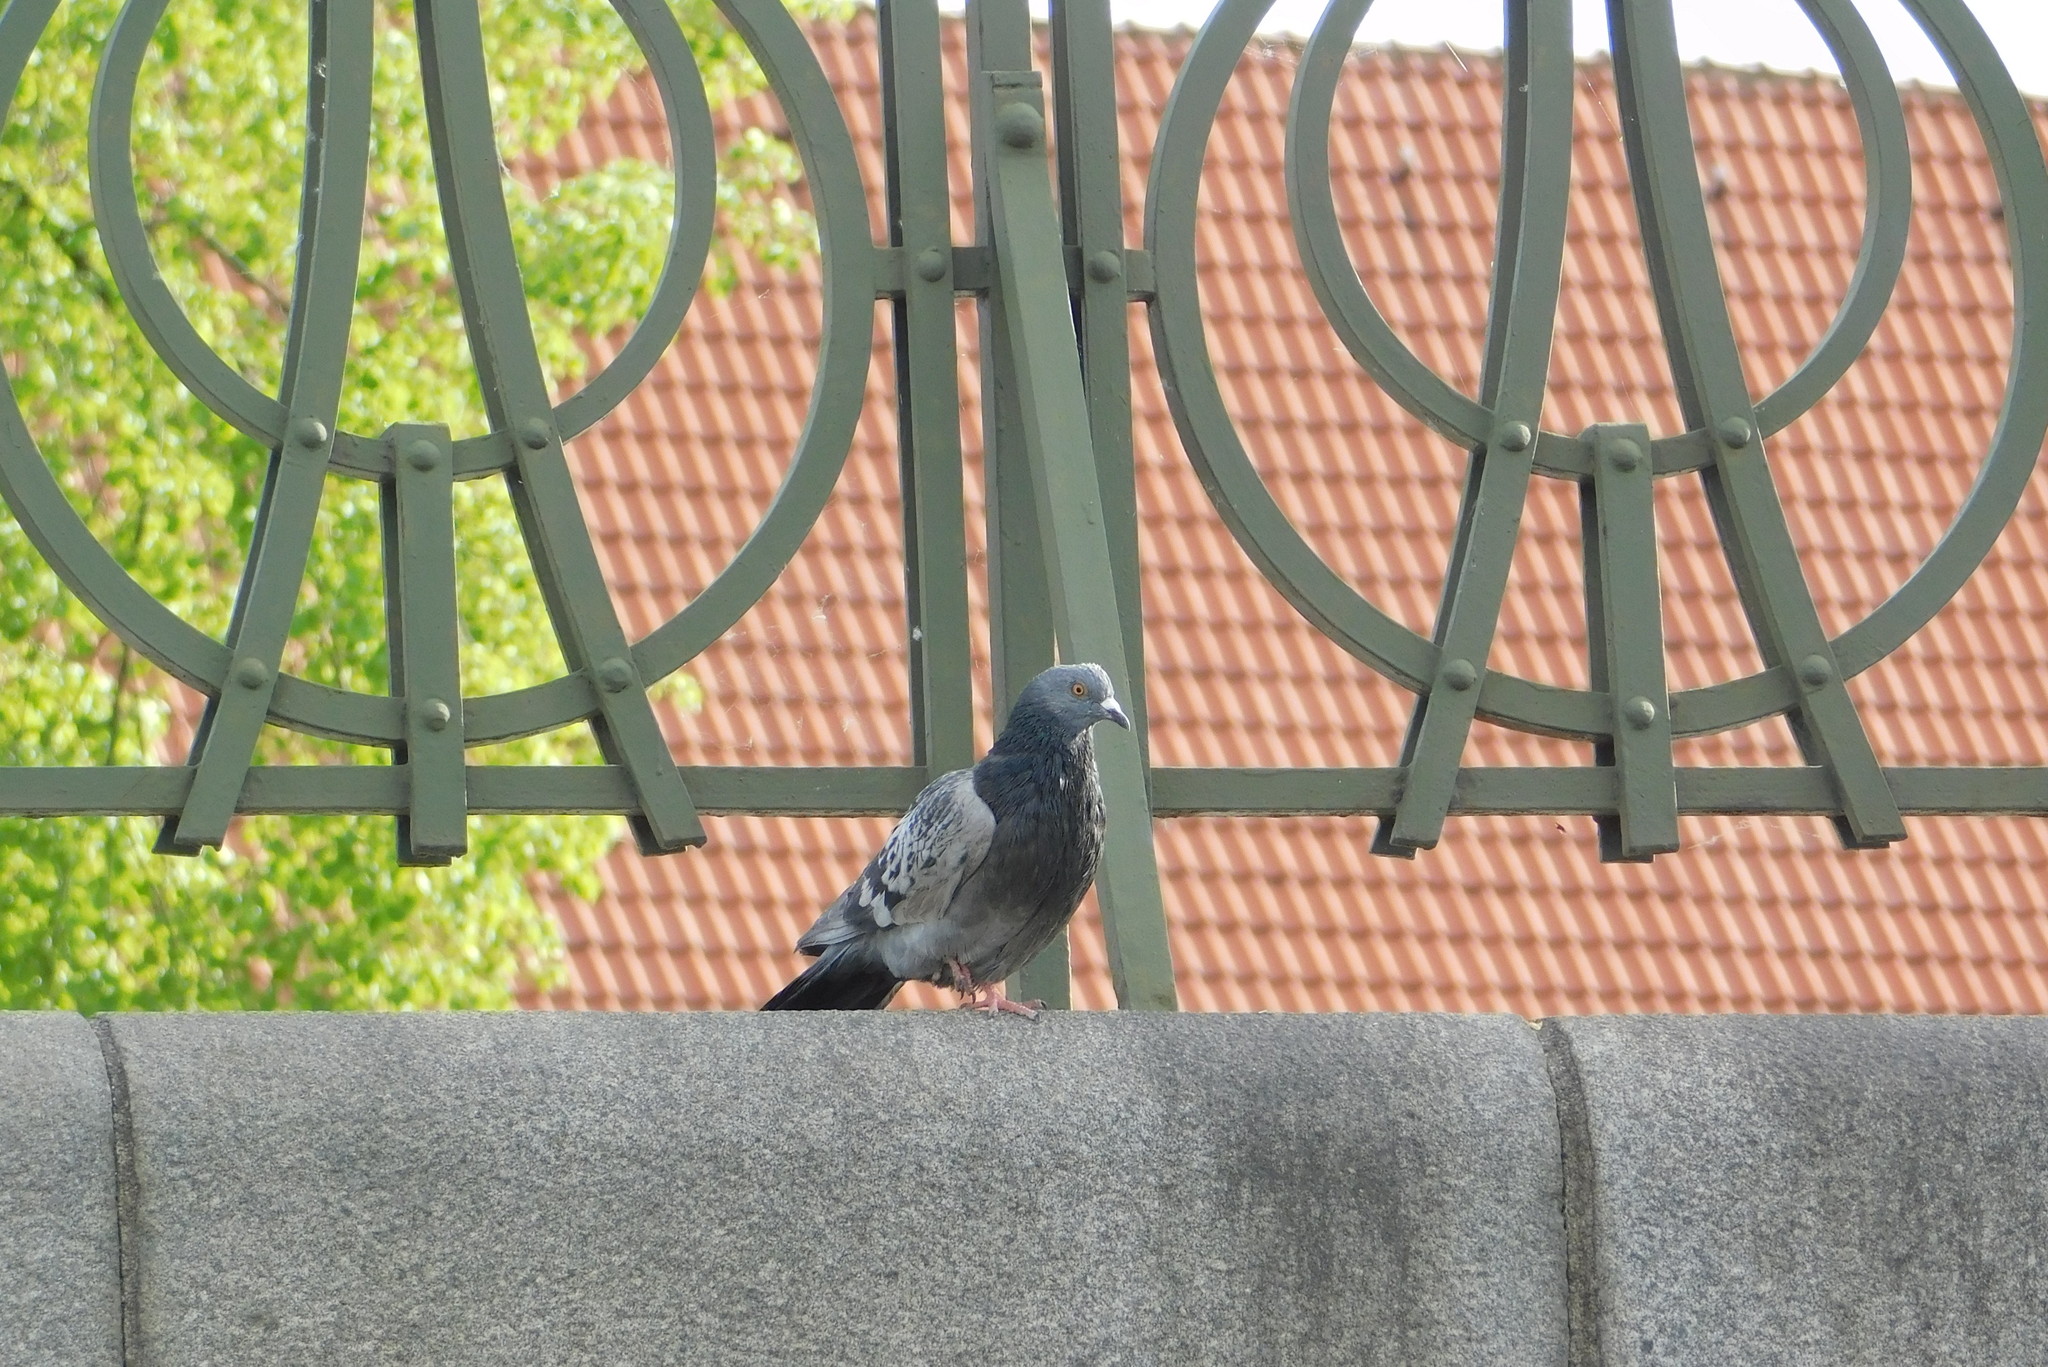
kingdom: Animalia
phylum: Chordata
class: Aves
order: Columbiformes
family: Columbidae
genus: Columba
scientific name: Columba livia
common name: Rock pigeon
